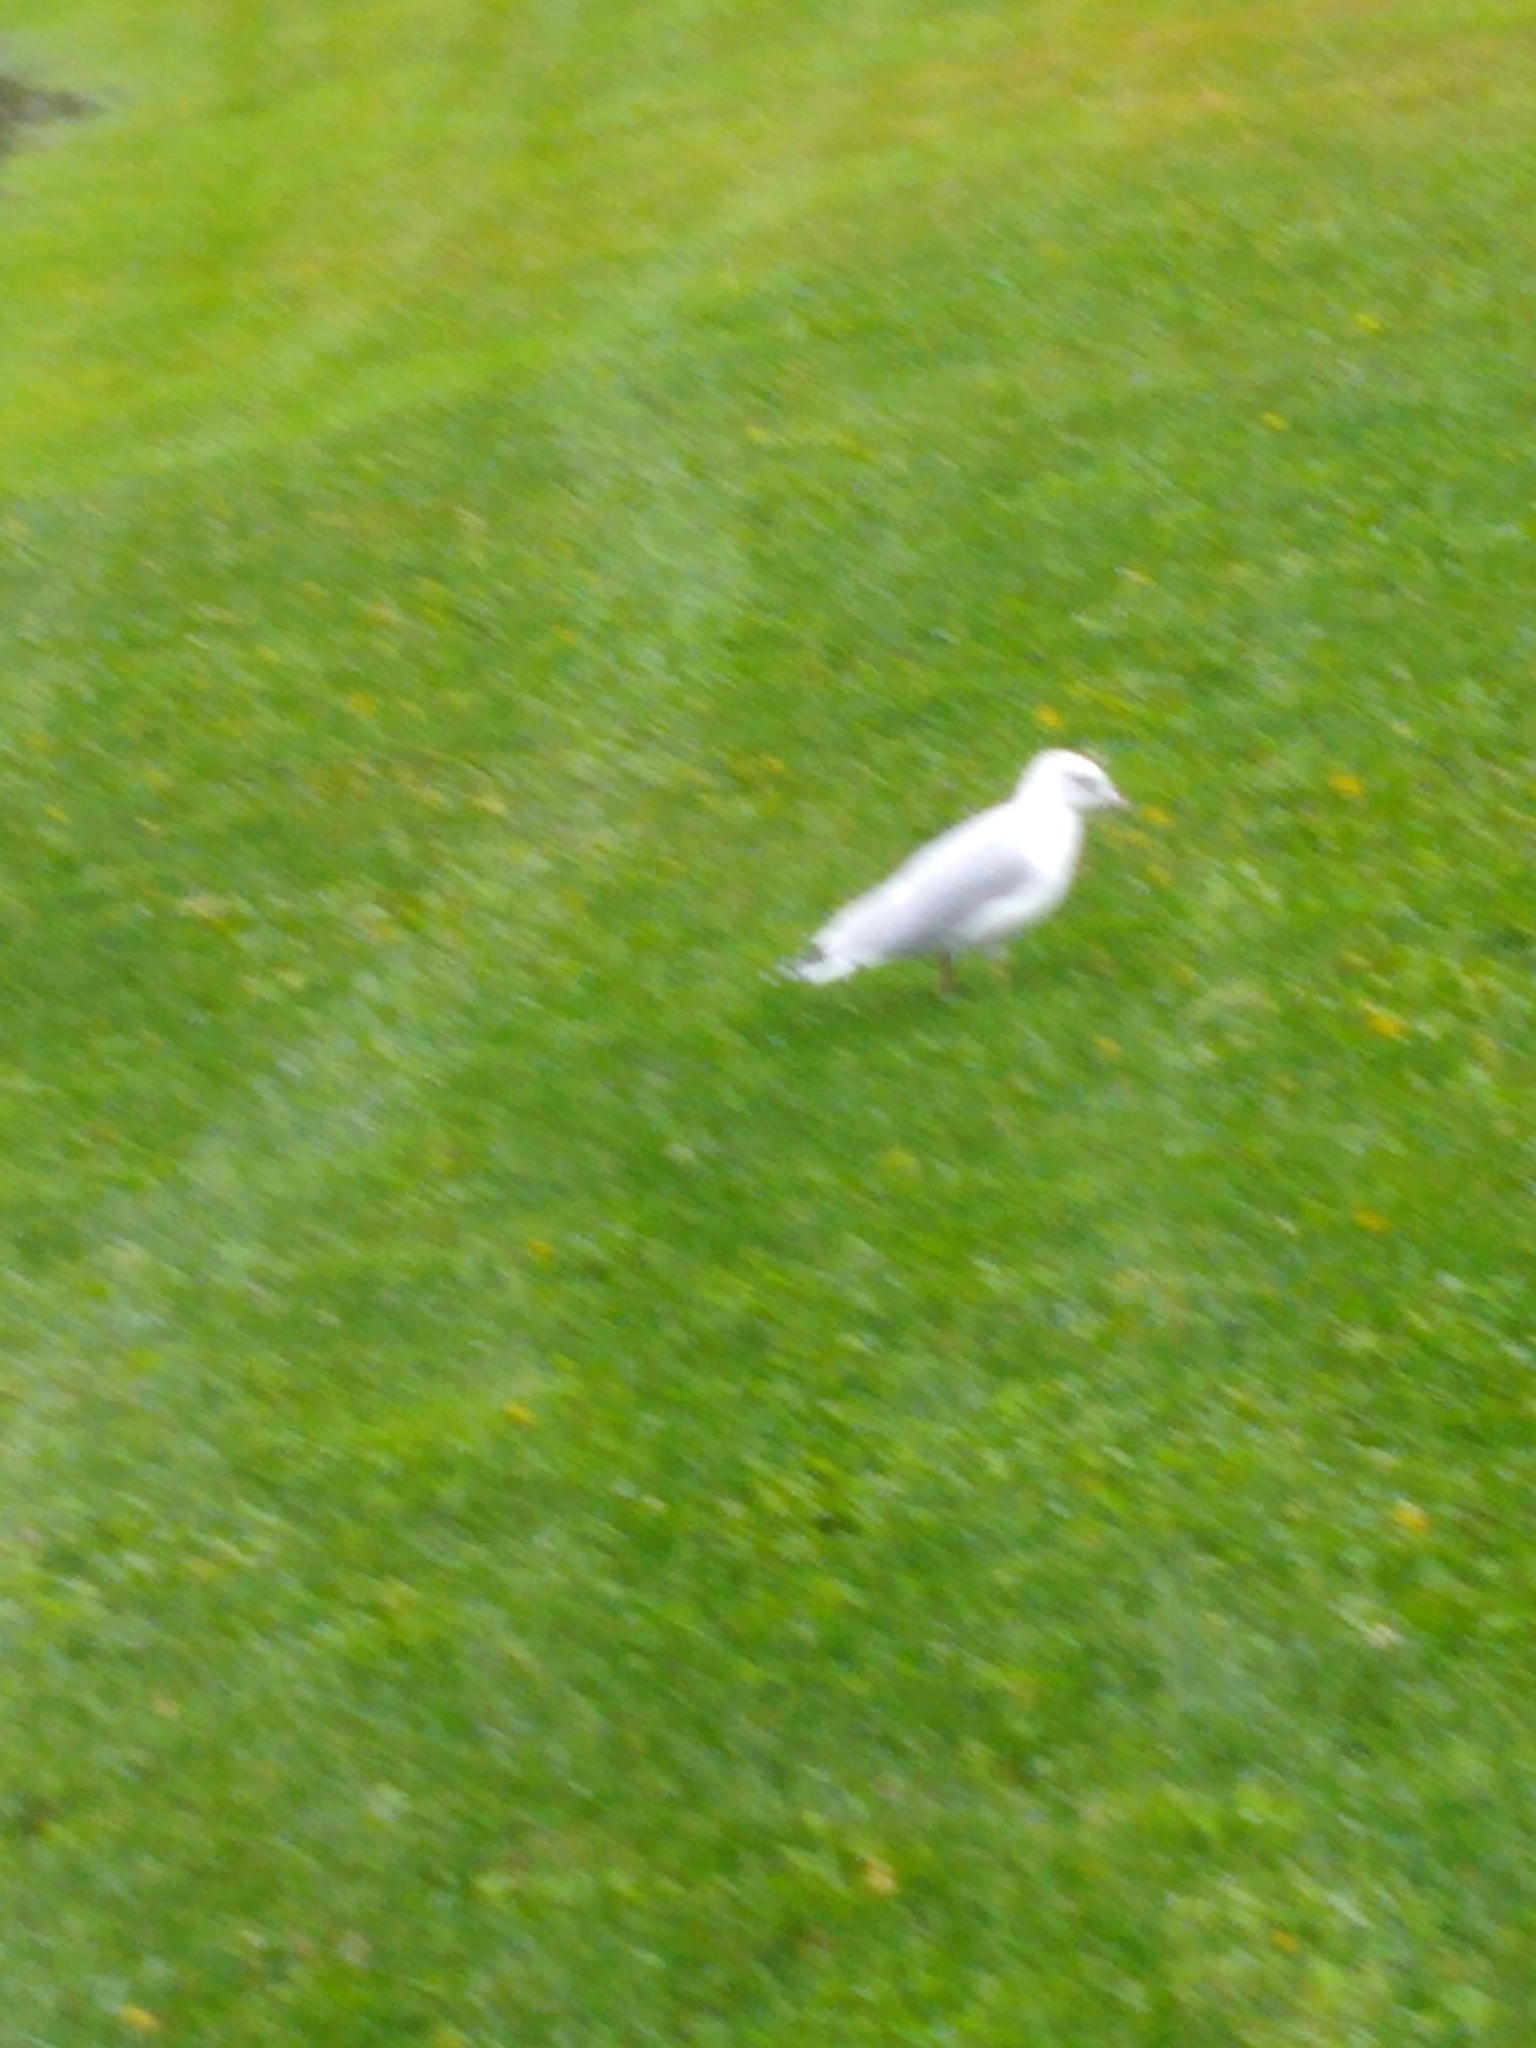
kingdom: Animalia
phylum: Chordata
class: Aves
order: Charadriiformes
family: Laridae
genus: Larus
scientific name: Larus delawarensis
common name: Ring-billed gull
